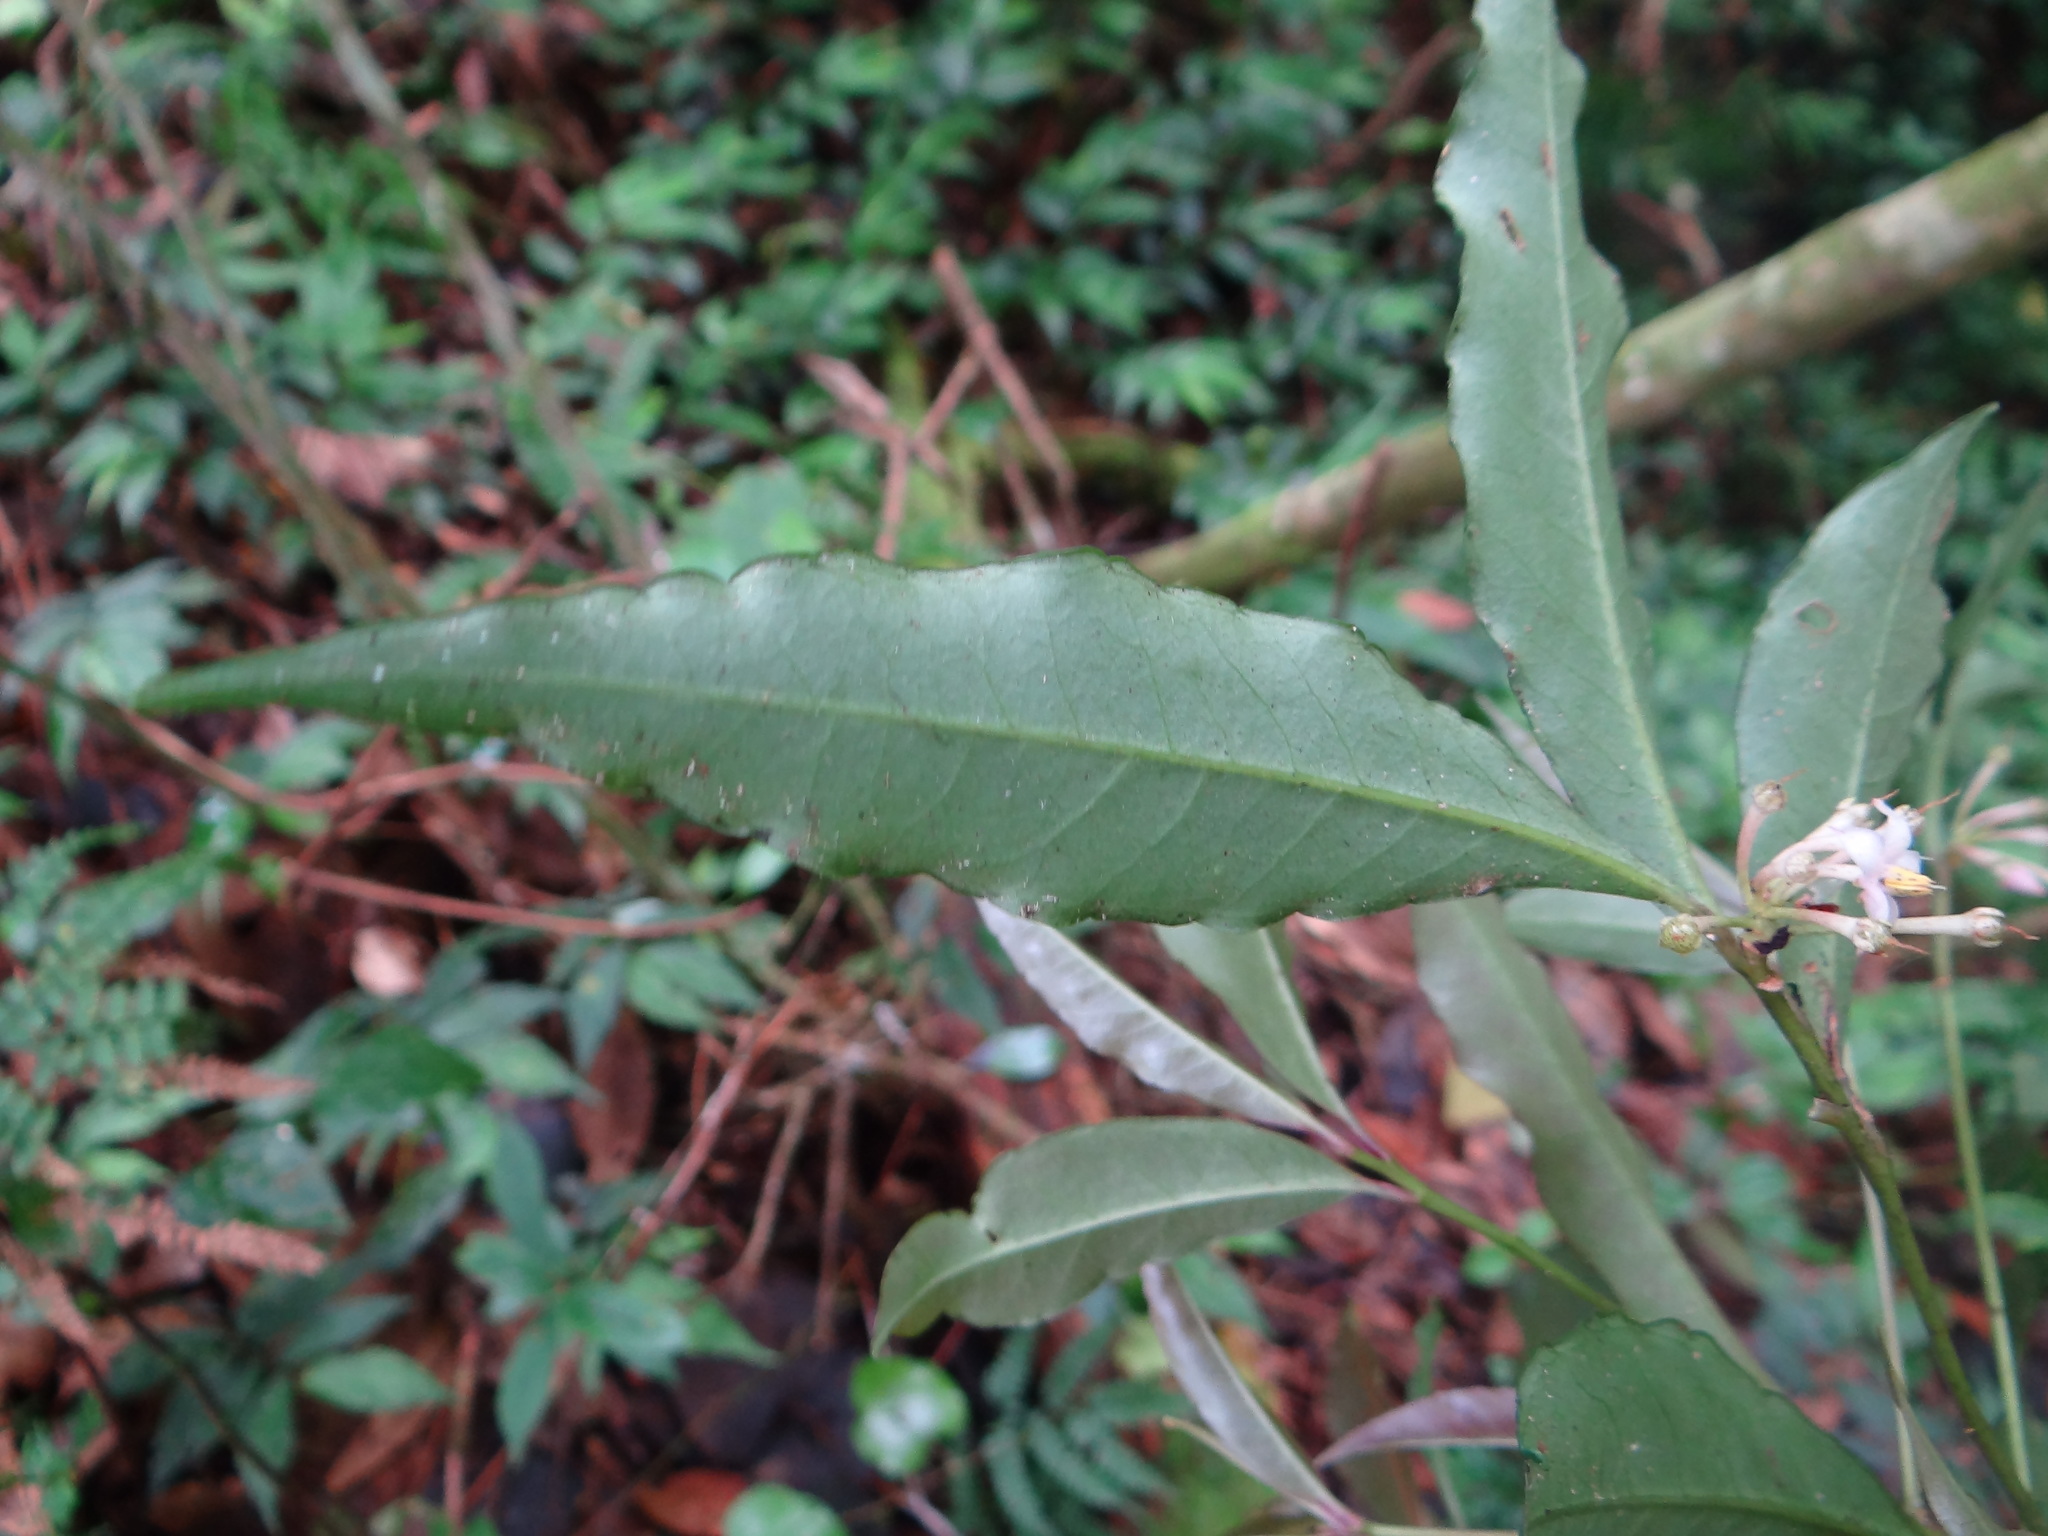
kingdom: Plantae
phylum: Tracheophyta
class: Magnoliopsida
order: Ericales
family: Primulaceae
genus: Ardisia
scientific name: Ardisia crenata
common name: Hen's eyes
